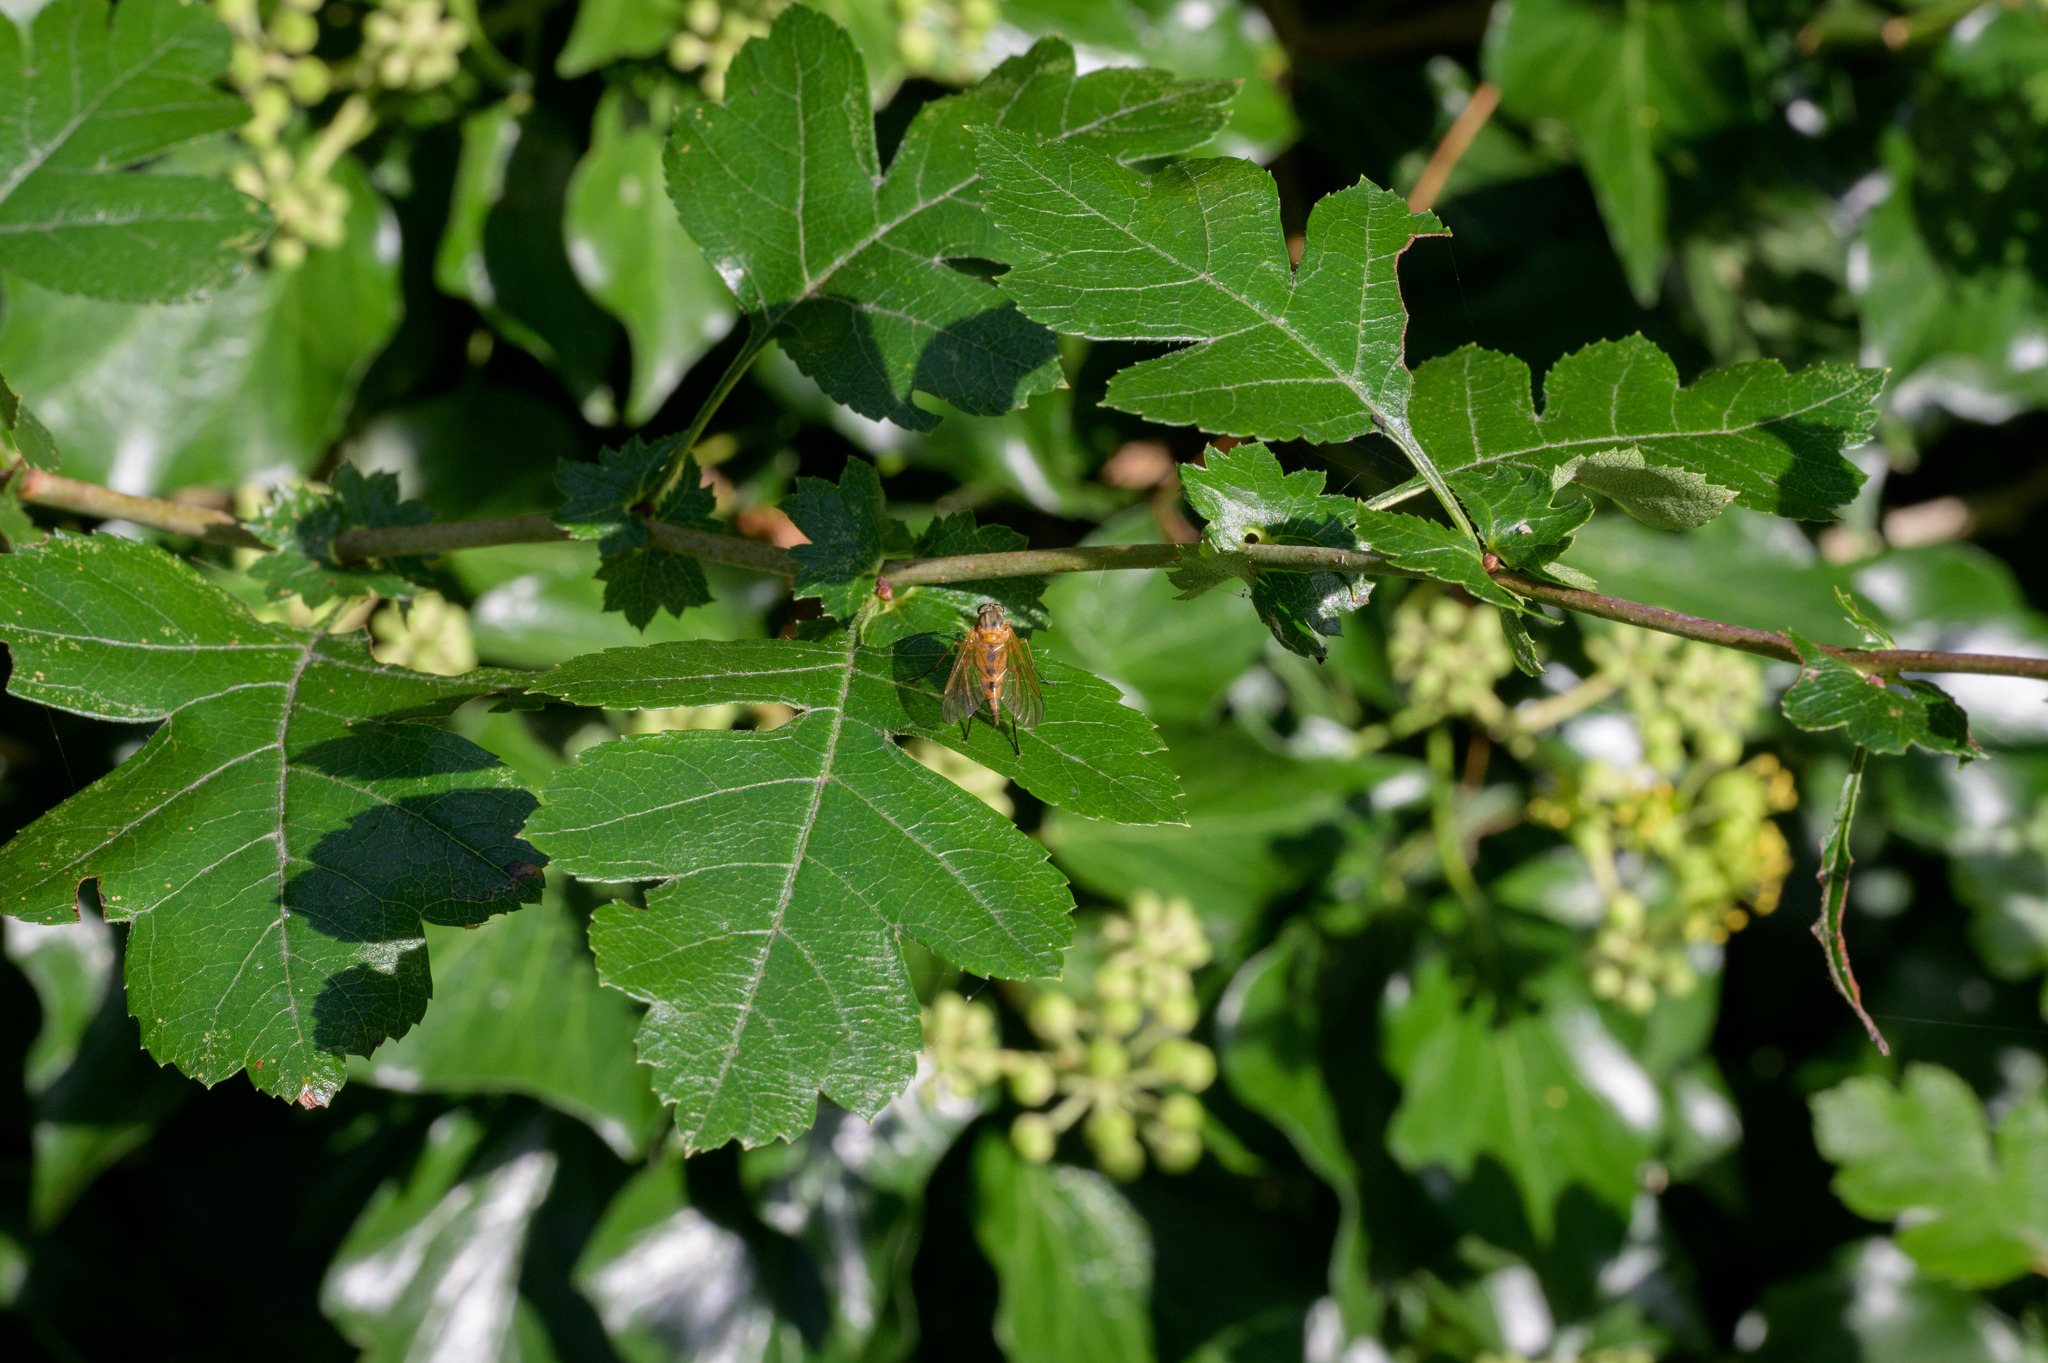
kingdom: Animalia
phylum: Arthropoda
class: Insecta
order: Diptera
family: Rhagionidae
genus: Rhagio
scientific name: Rhagio tringaria
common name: Marsh snipefly
